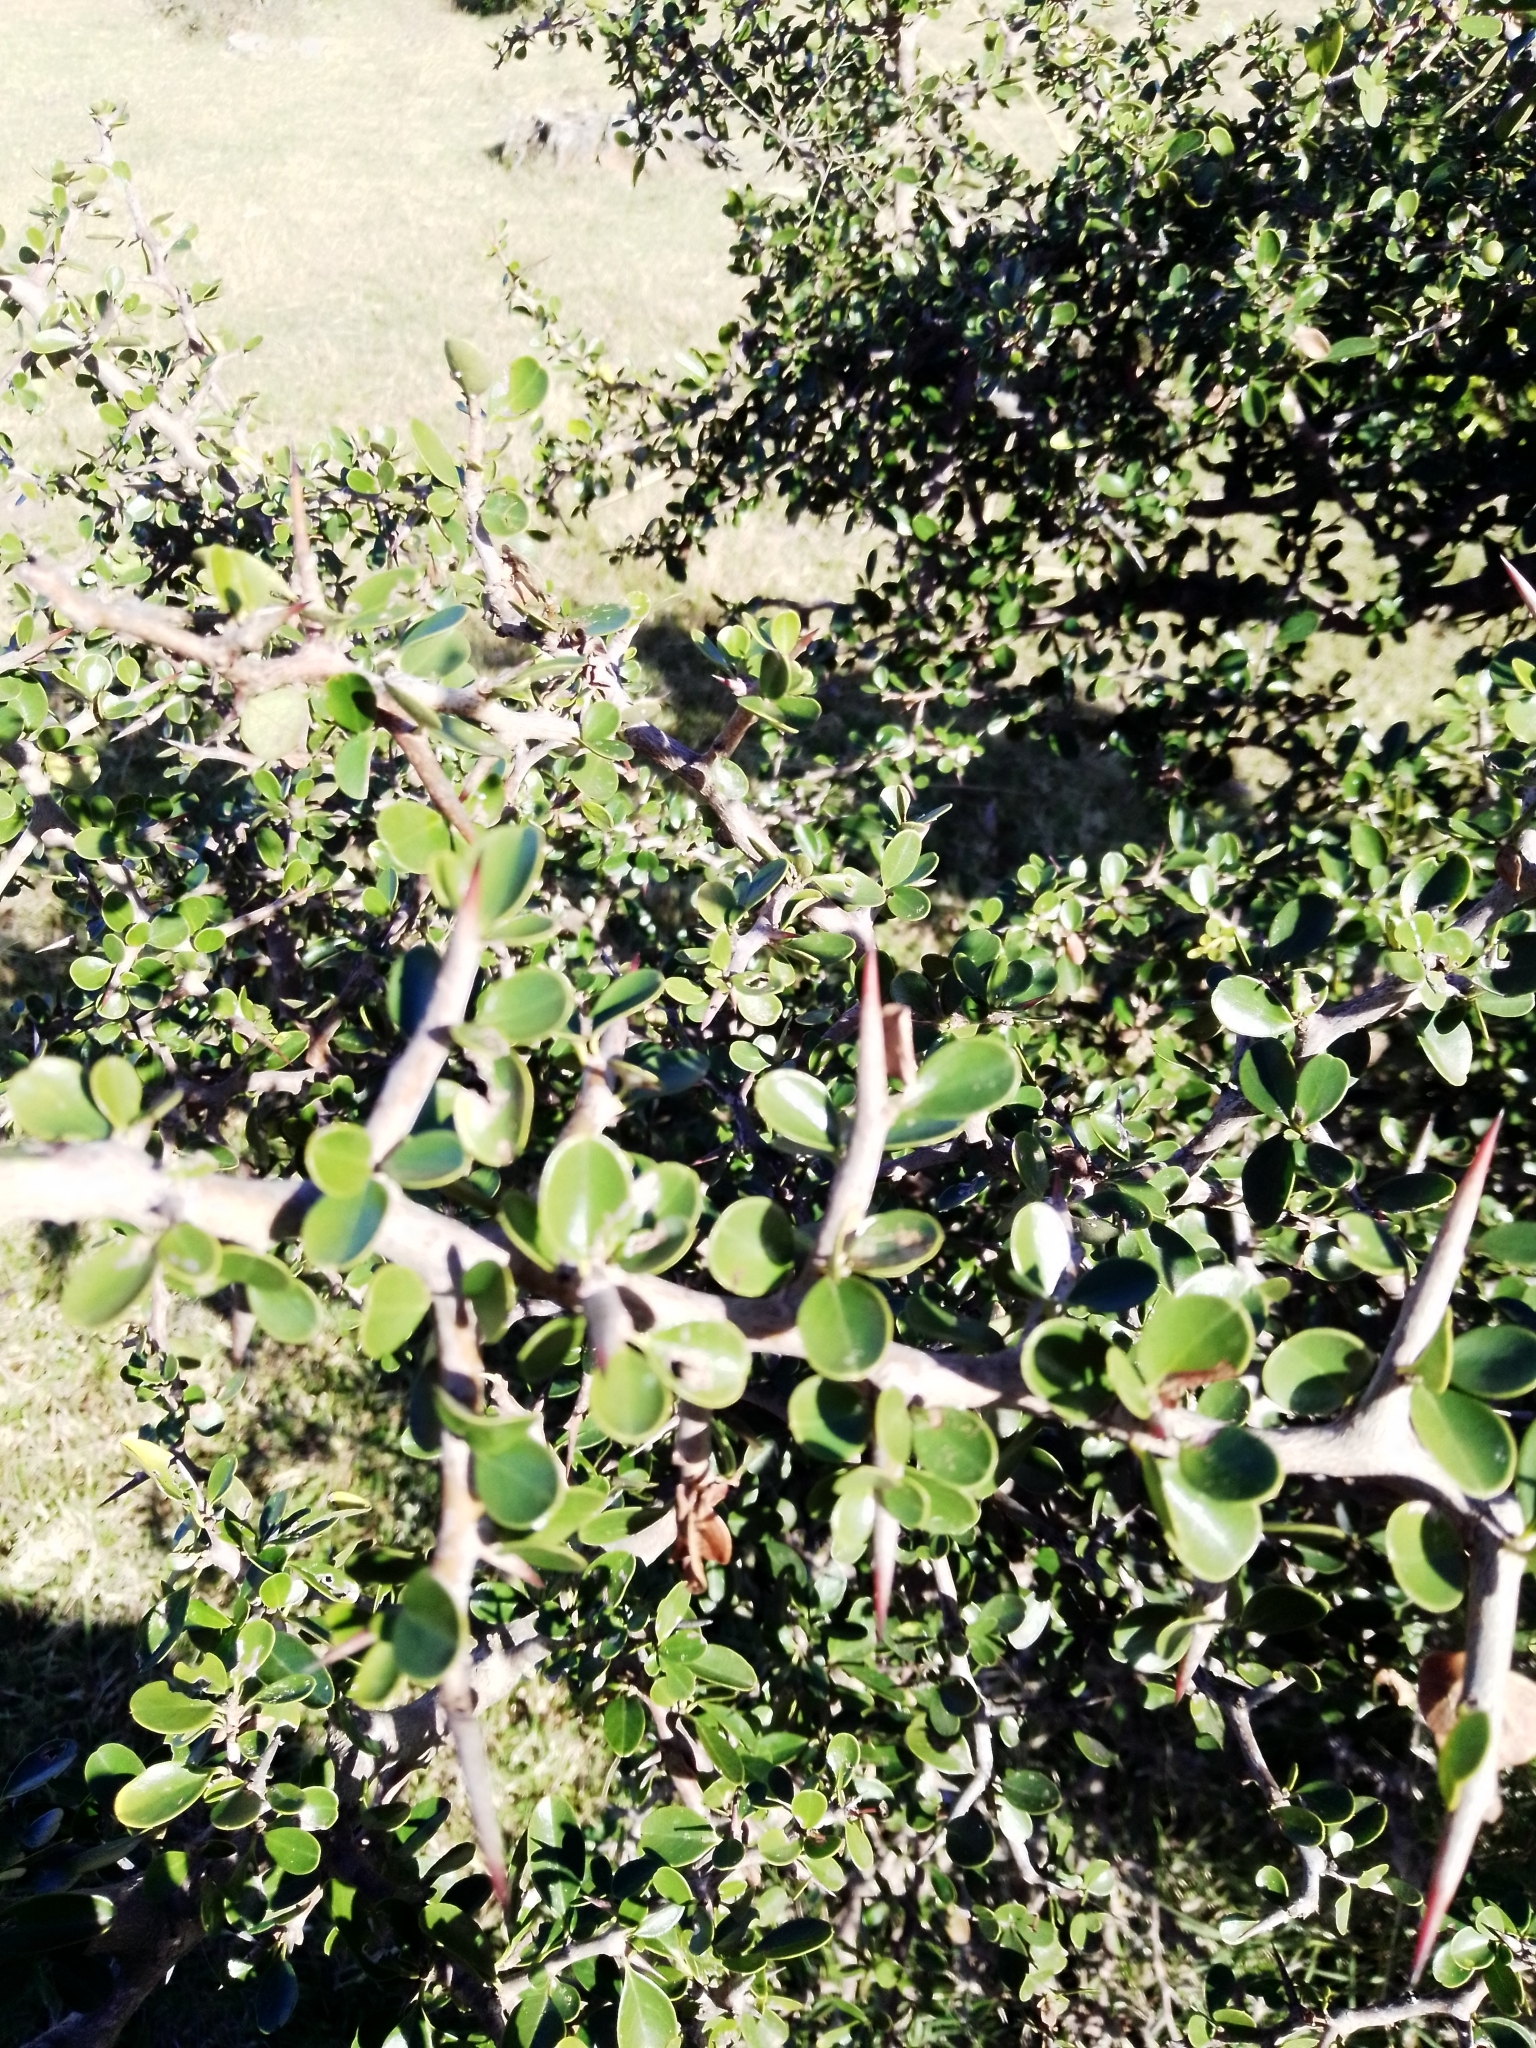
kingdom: Plantae
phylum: Tracheophyta
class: Magnoliopsida
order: Rosales
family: Rhamnaceae
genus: Condalia
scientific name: Condalia buxifolia
